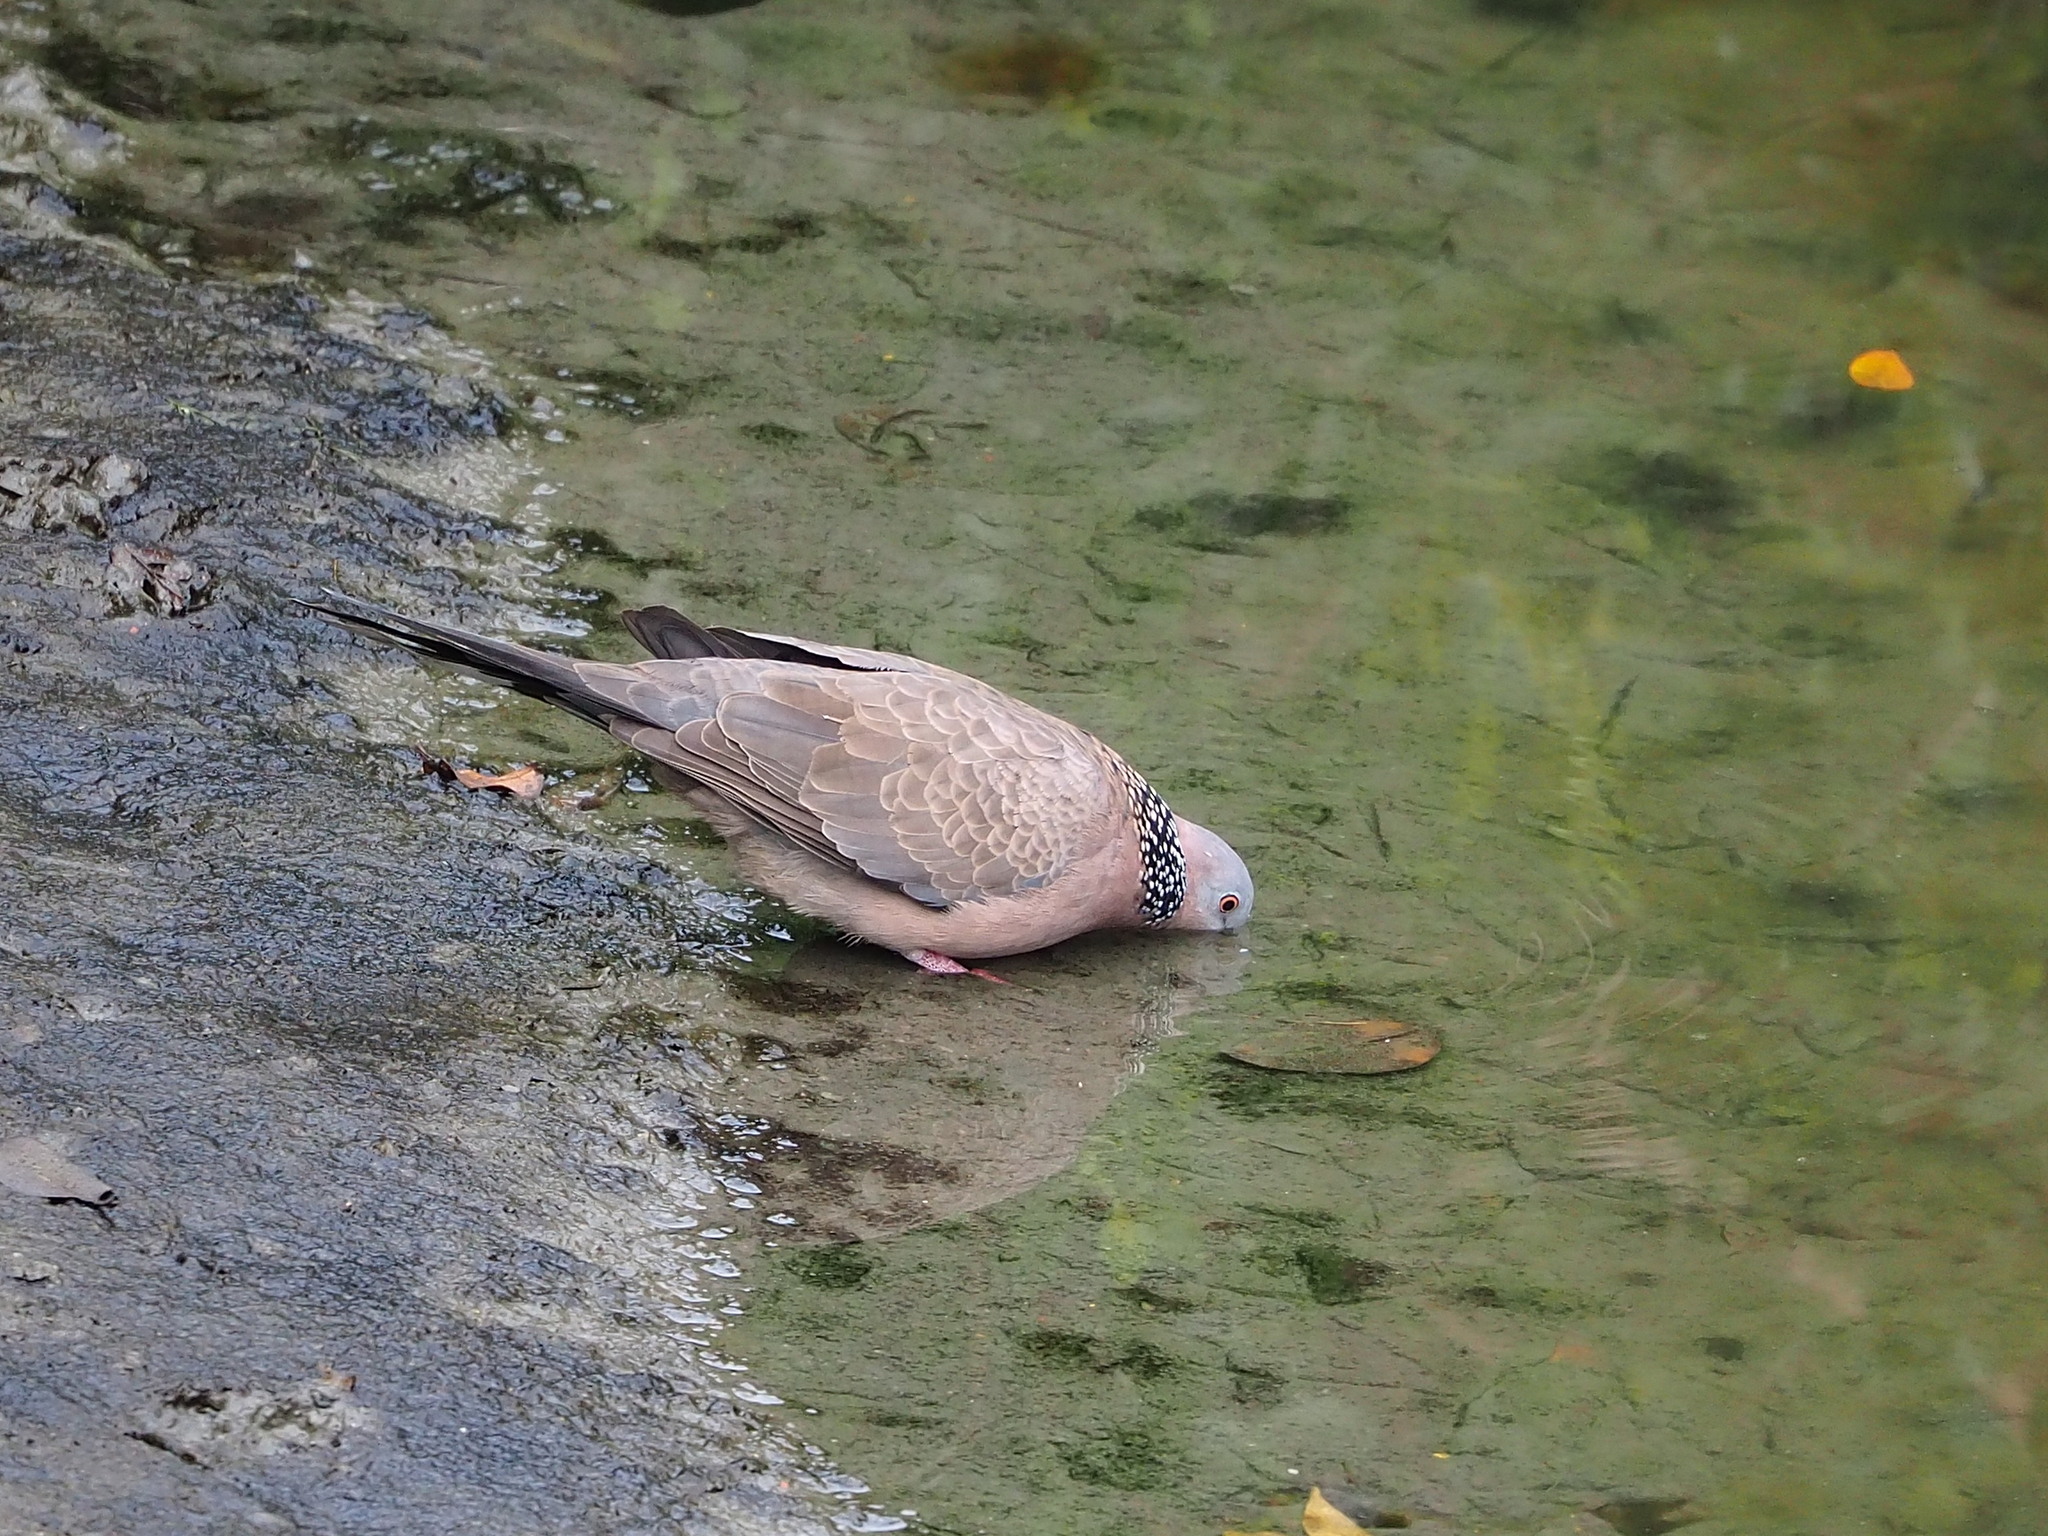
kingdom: Animalia
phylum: Chordata
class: Aves
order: Columbiformes
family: Columbidae
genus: Spilopelia
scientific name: Spilopelia chinensis
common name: Spotted dove
